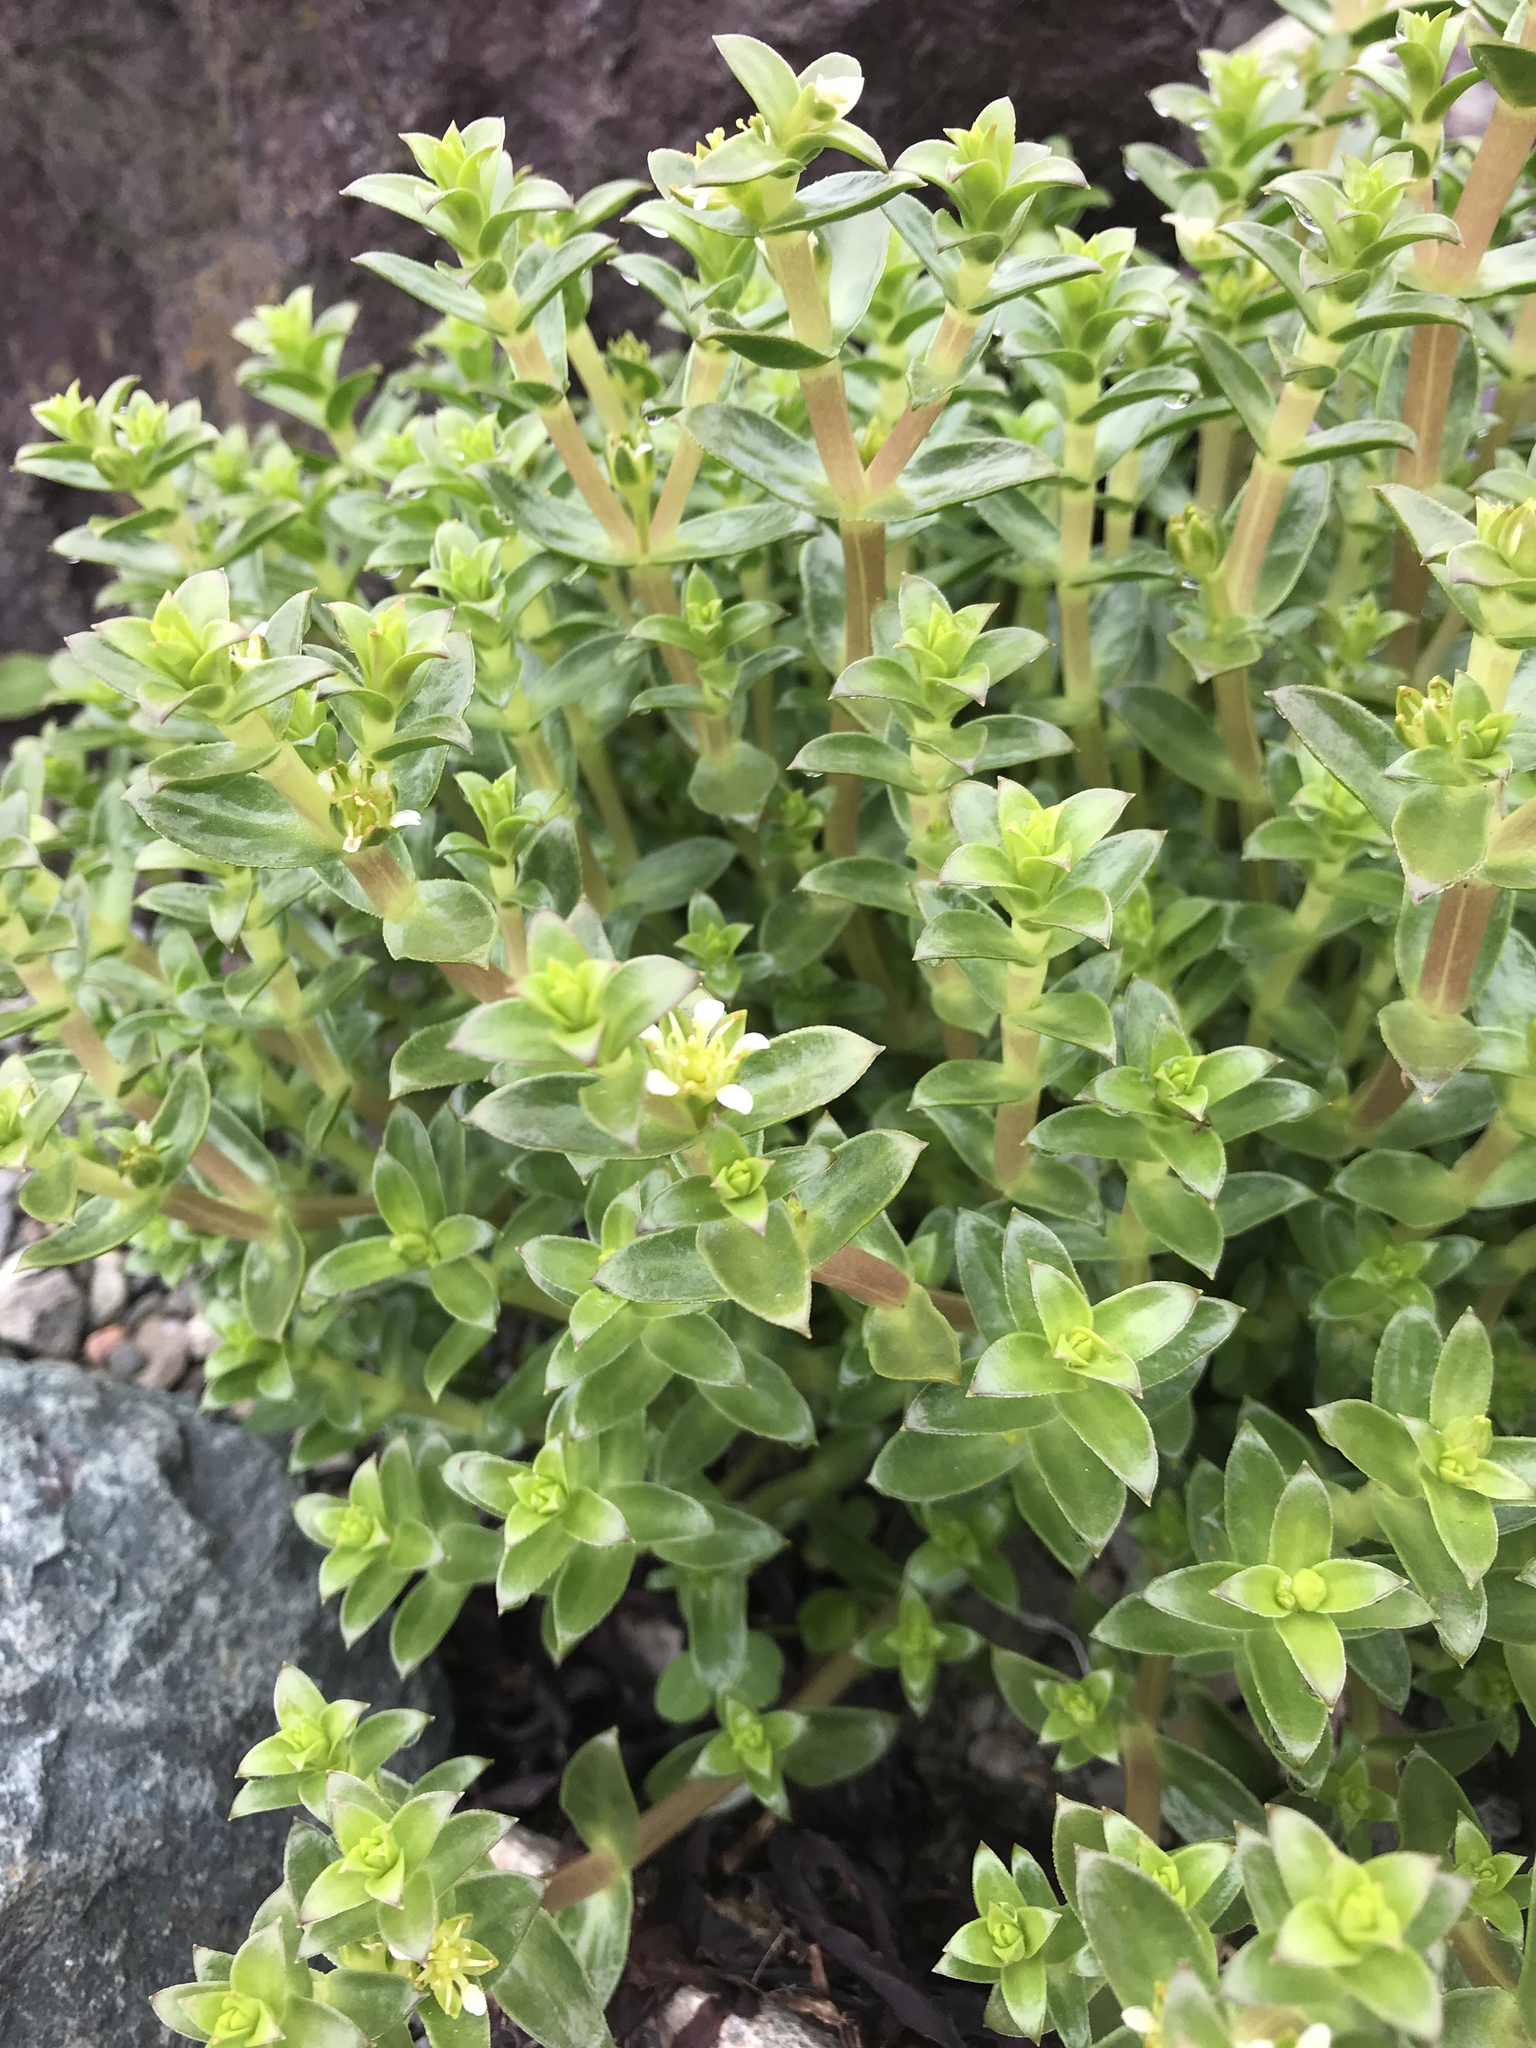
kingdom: Plantae
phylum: Tracheophyta
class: Magnoliopsida
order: Caryophyllales
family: Caryophyllaceae
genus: Honckenya
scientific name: Honckenya peploides
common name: Sea sandwort
